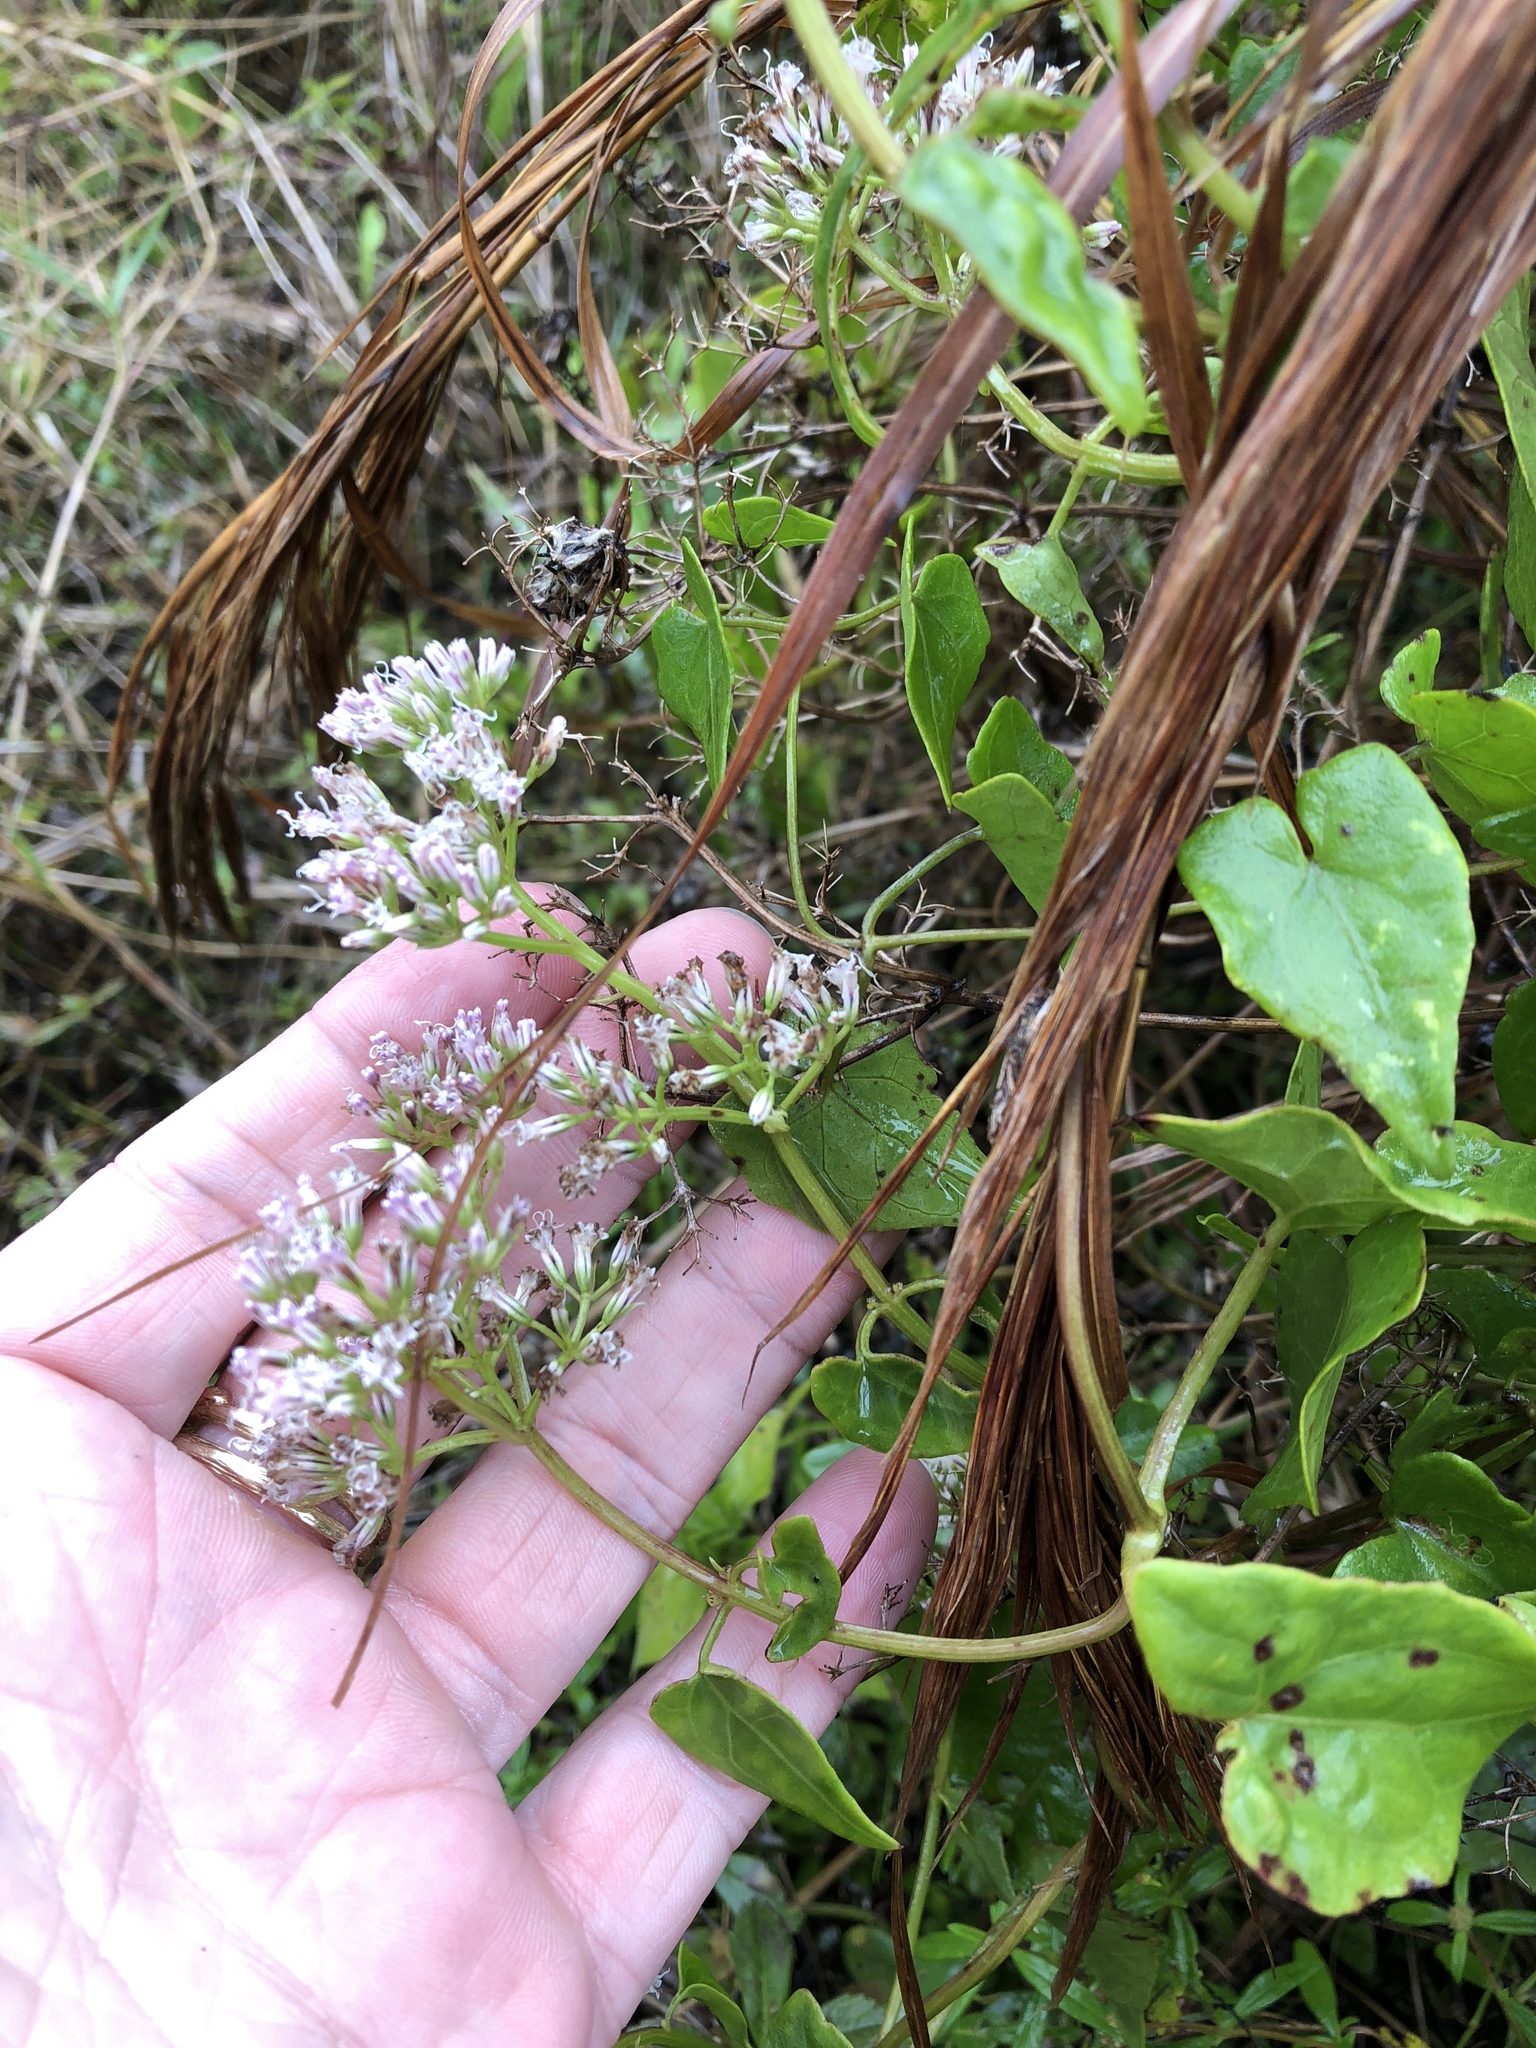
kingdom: Plantae
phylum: Tracheophyta
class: Magnoliopsida
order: Asterales
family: Asteraceae
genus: Mikania
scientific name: Mikania scandens
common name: Climbing hempvine
